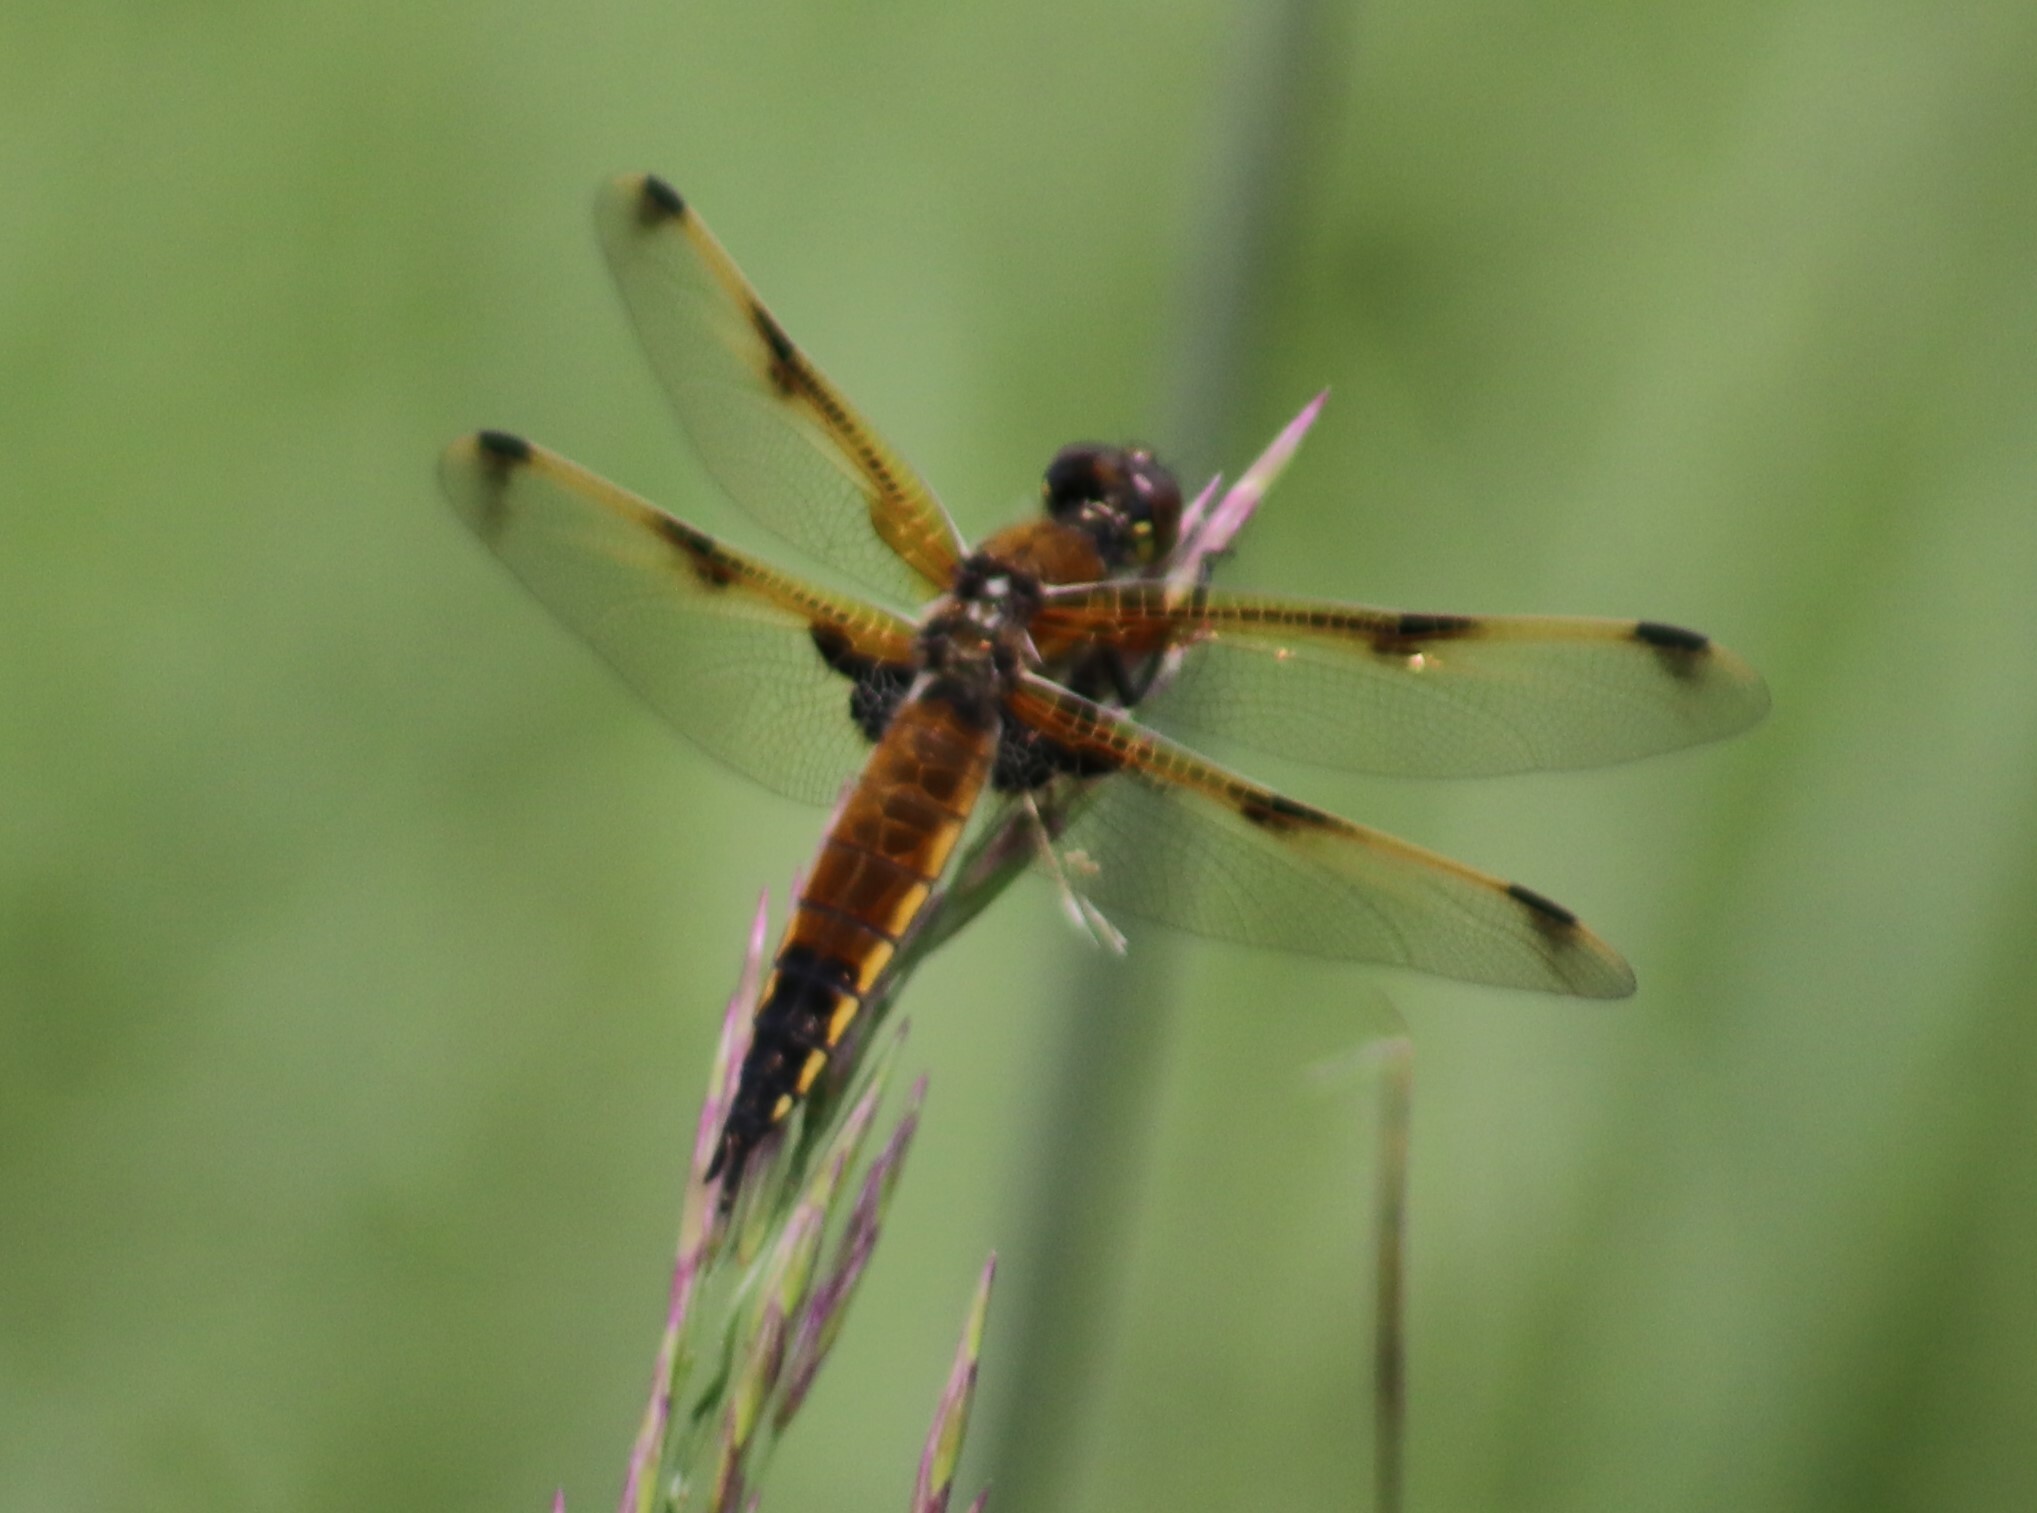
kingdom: Animalia
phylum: Arthropoda
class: Insecta
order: Odonata
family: Libellulidae
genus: Libellula
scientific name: Libellula quadrimaculata
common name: Four-spotted chaser
